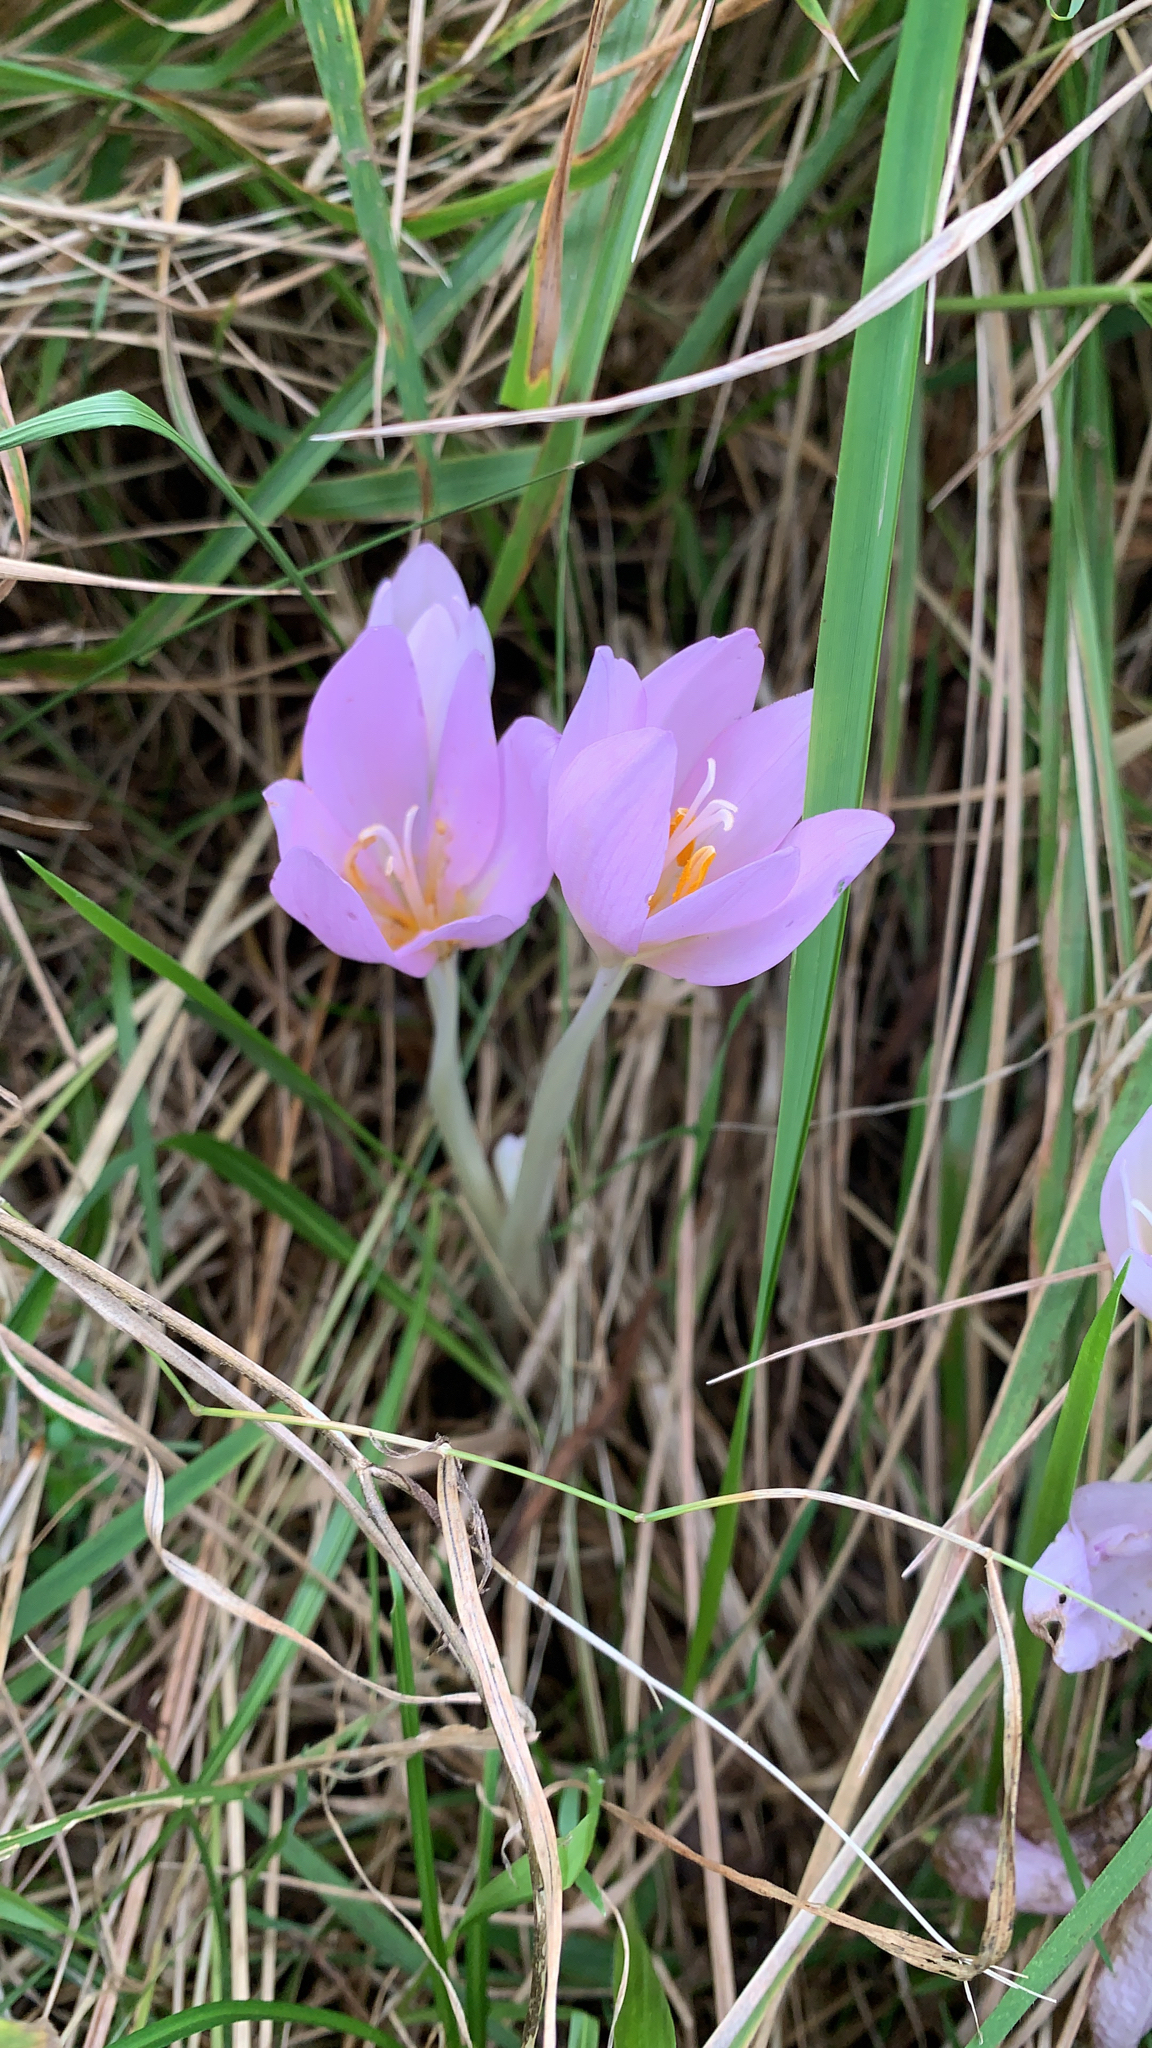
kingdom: Plantae
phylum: Tracheophyta
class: Liliopsida
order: Liliales
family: Colchicaceae
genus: Colchicum
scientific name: Colchicum autumnale
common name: Autumn crocus
